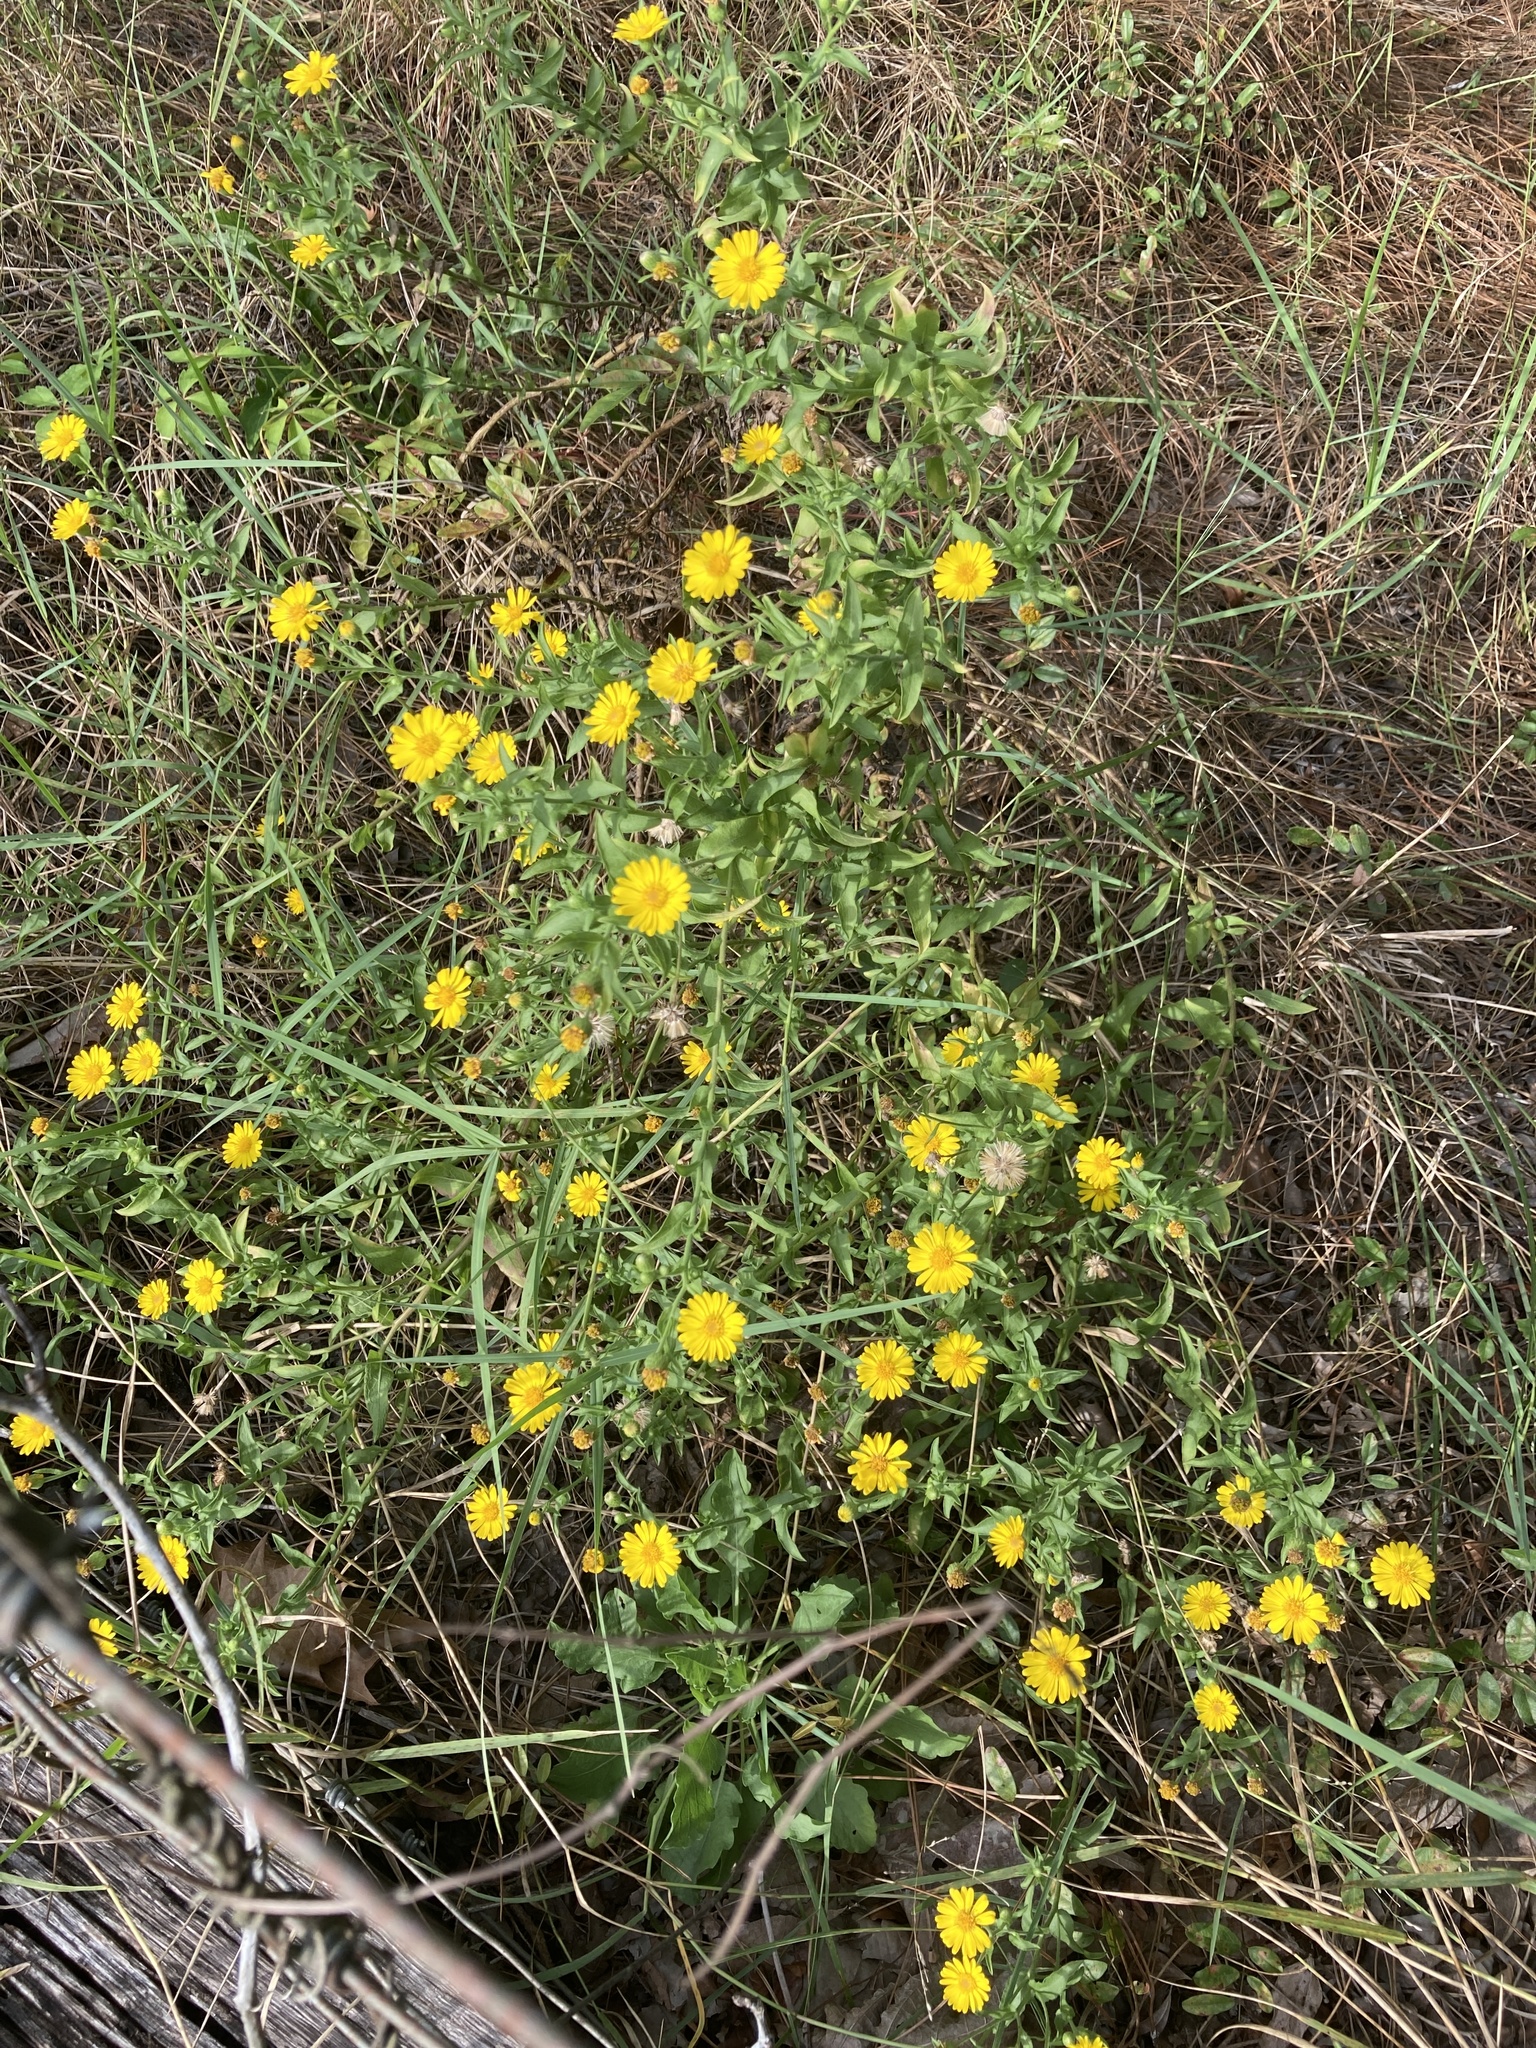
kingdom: Plantae
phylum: Tracheophyta
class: Magnoliopsida
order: Asterales
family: Asteraceae
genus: Heterotheca
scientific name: Heterotheca subaxillaris
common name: Camphorweed
